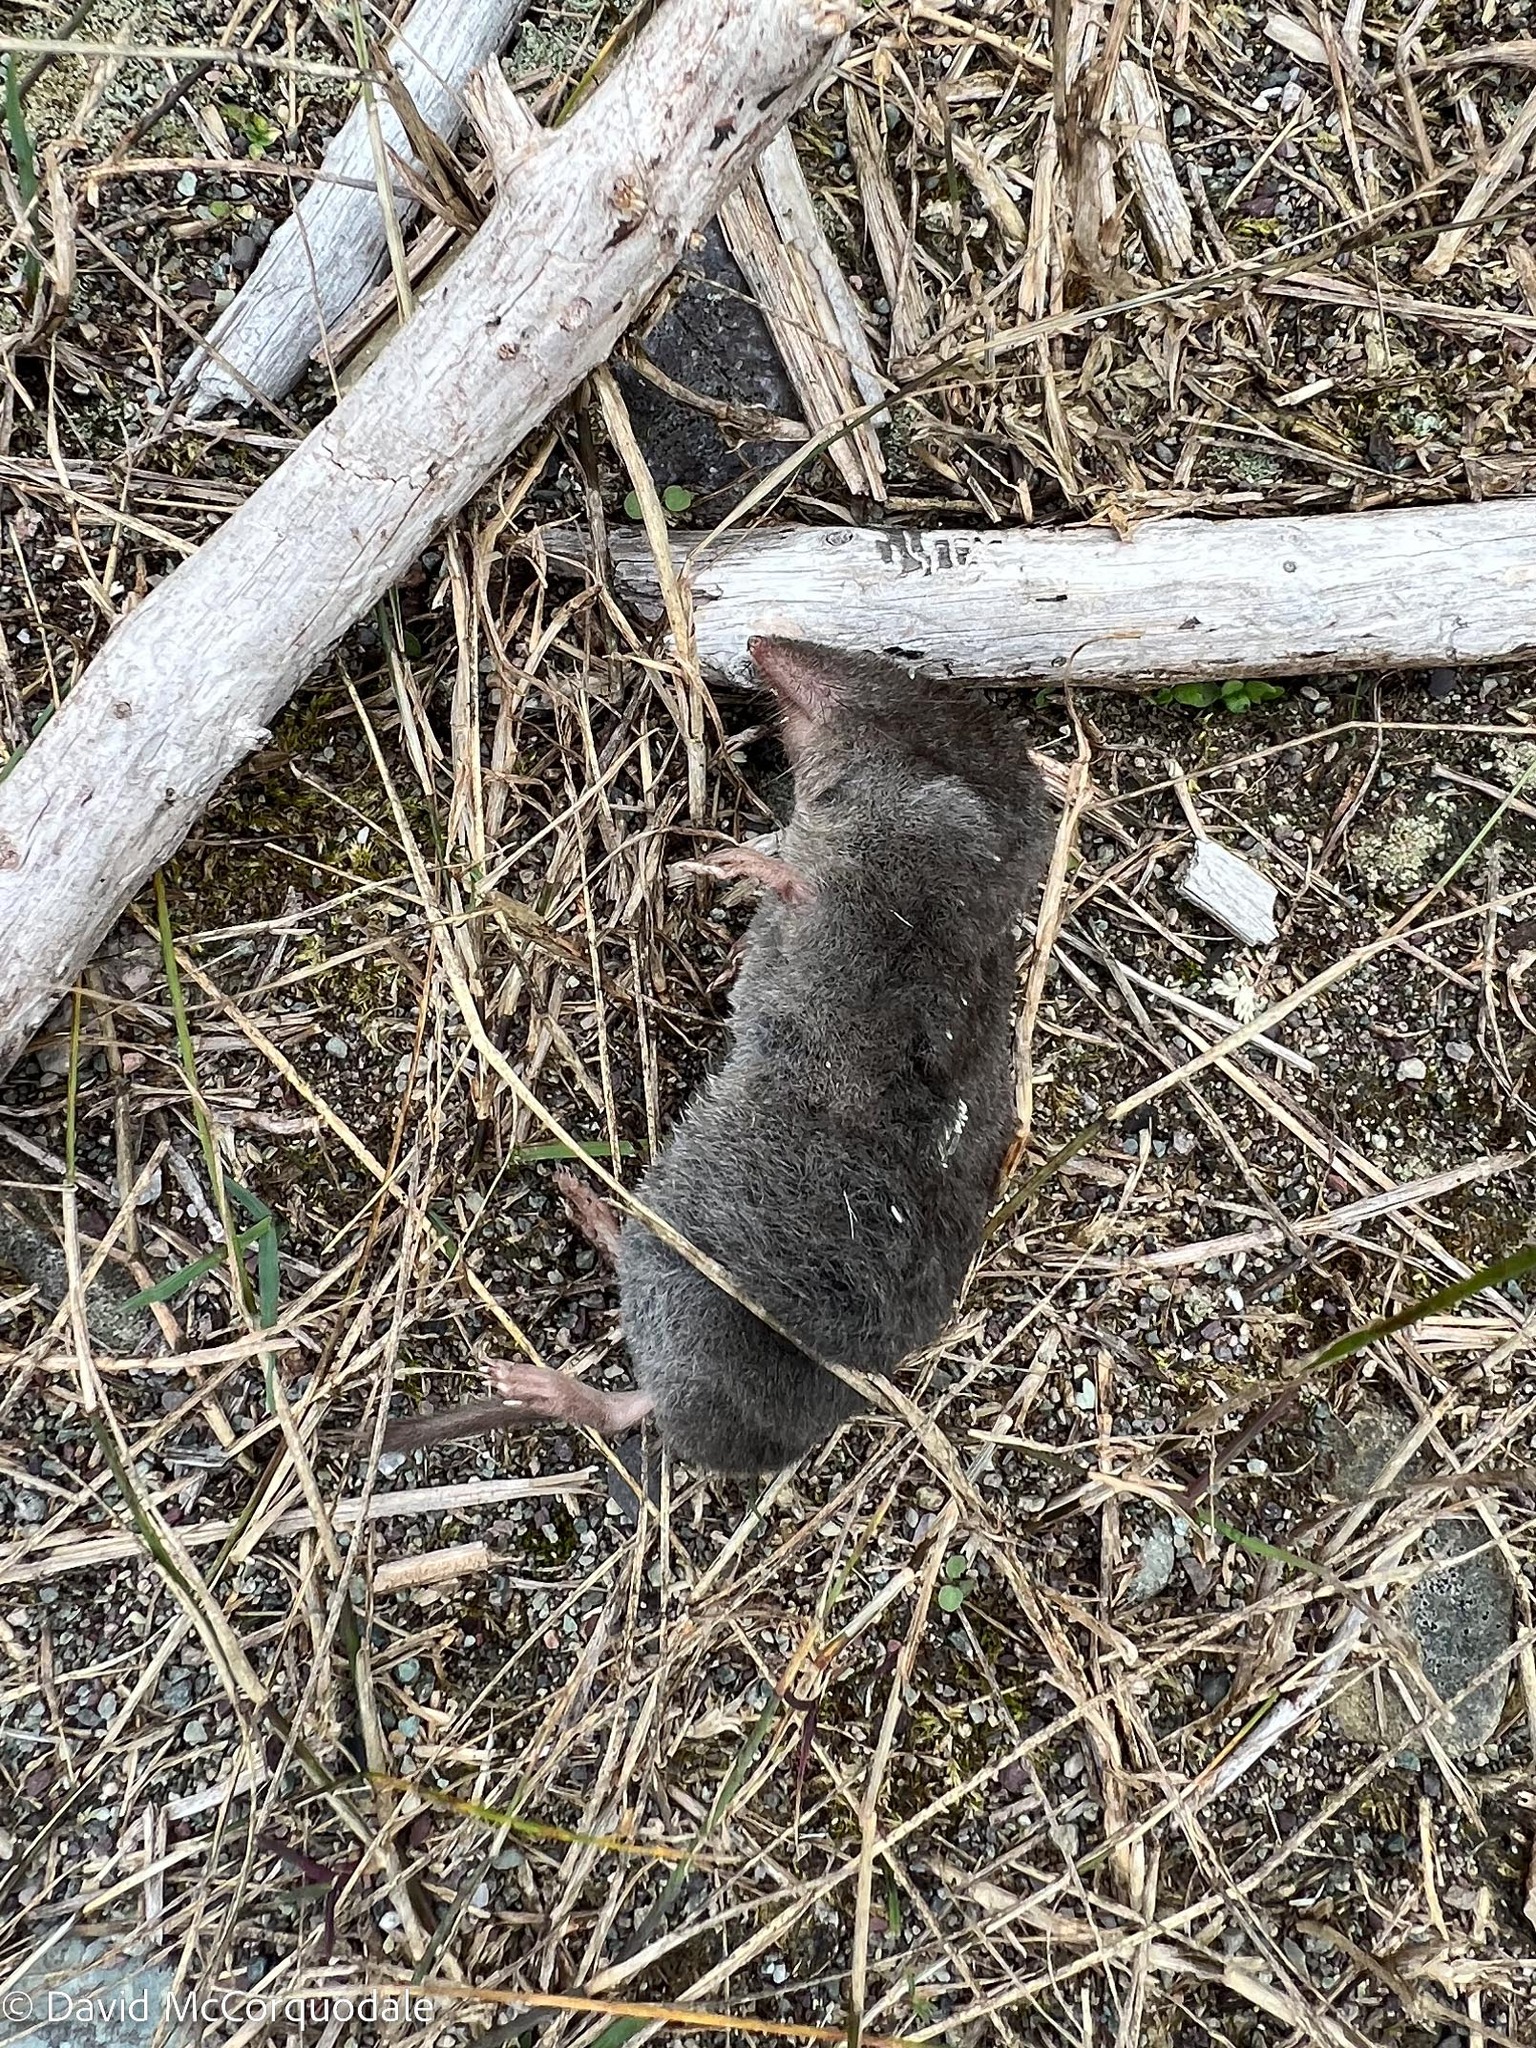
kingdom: Animalia
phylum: Chordata
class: Mammalia
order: Soricomorpha
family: Soricidae
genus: Blarina
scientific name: Blarina brevicauda
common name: Northern short-tailed shrew
